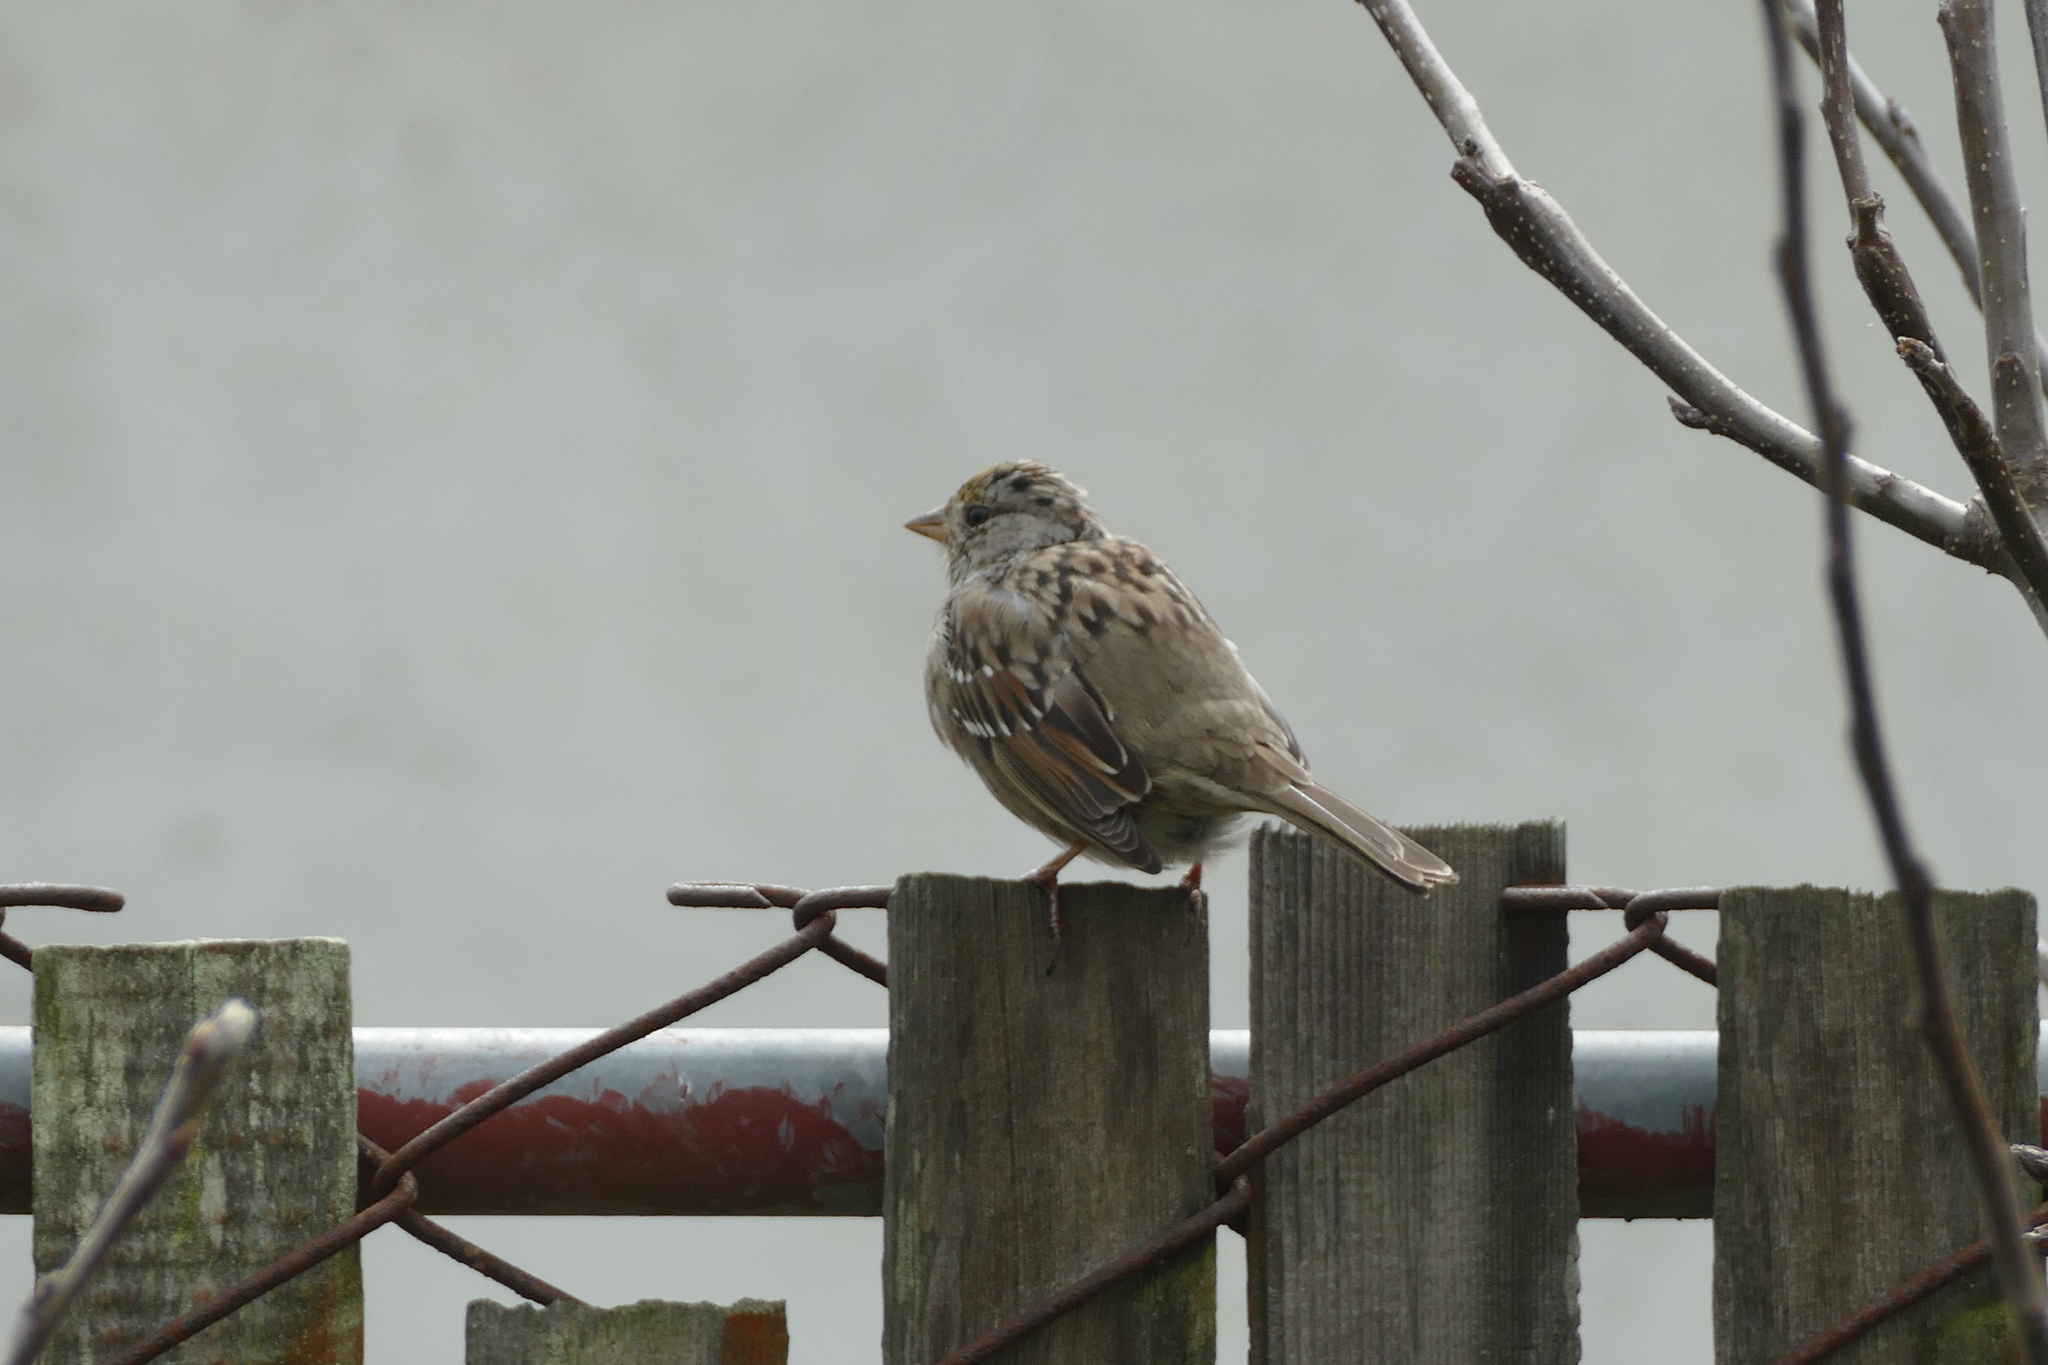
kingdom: Animalia
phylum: Chordata
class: Aves
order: Passeriformes
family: Passerellidae
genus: Zonotrichia
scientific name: Zonotrichia atricapilla
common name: Golden-crowned sparrow
